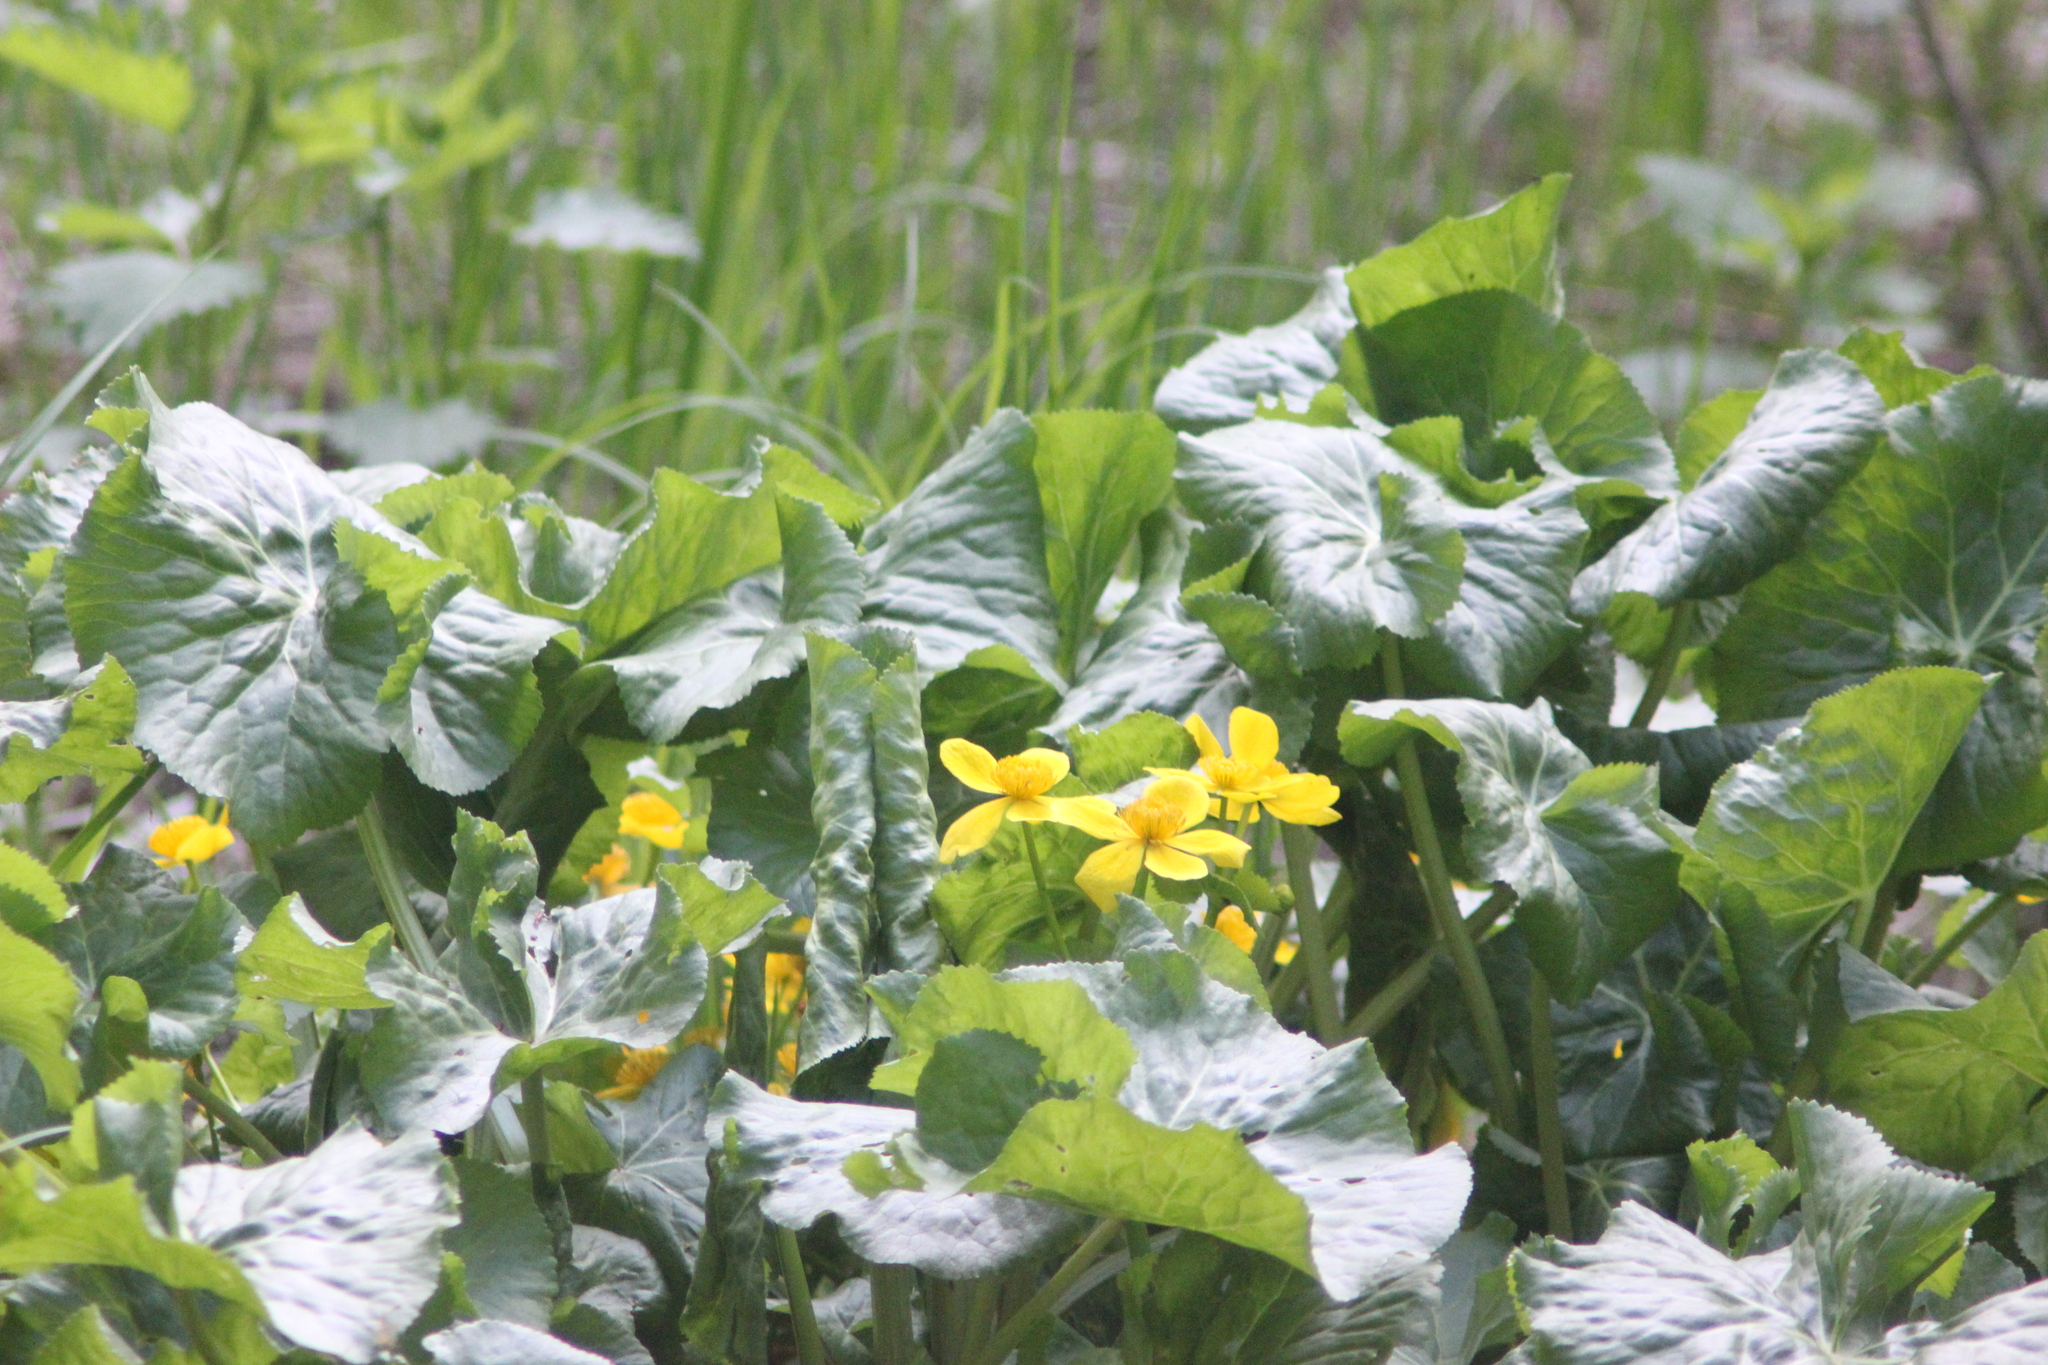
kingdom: Plantae
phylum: Tracheophyta
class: Magnoliopsida
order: Ranunculales
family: Ranunculaceae
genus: Caltha
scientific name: Caltha palustris
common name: Marsh marigold
